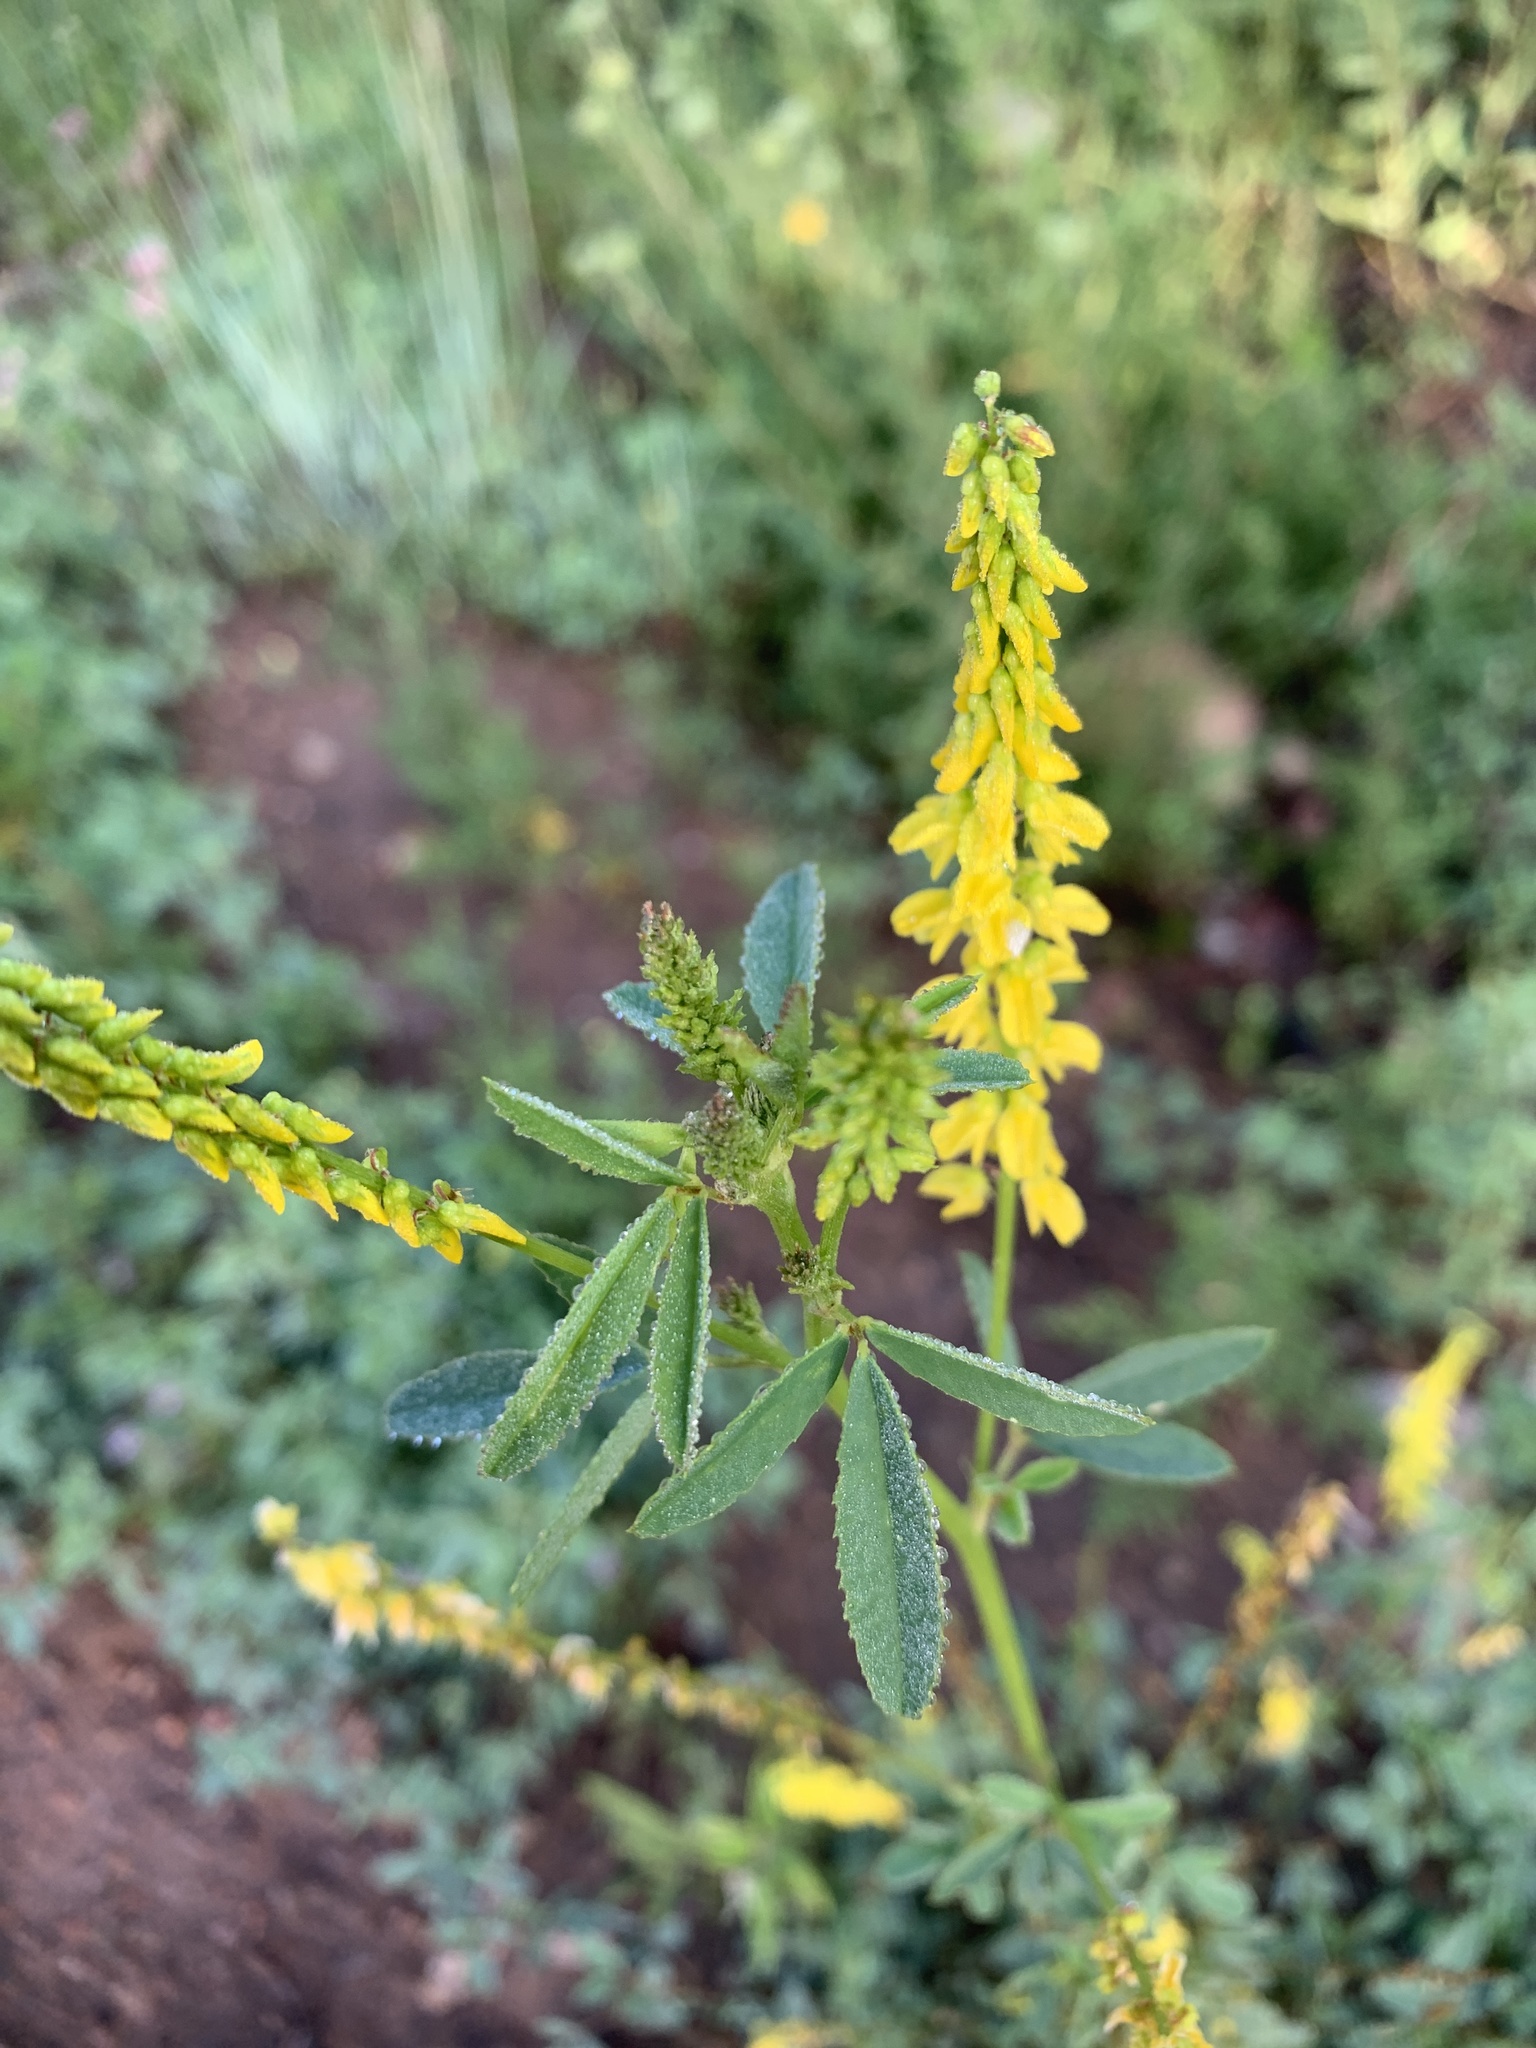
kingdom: Plantae
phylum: Tracheophyta
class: Magnoliopsida
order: Fabales
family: Fabaceae
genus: Melilotus
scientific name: Melilotus officinalis
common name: Sweetclover
